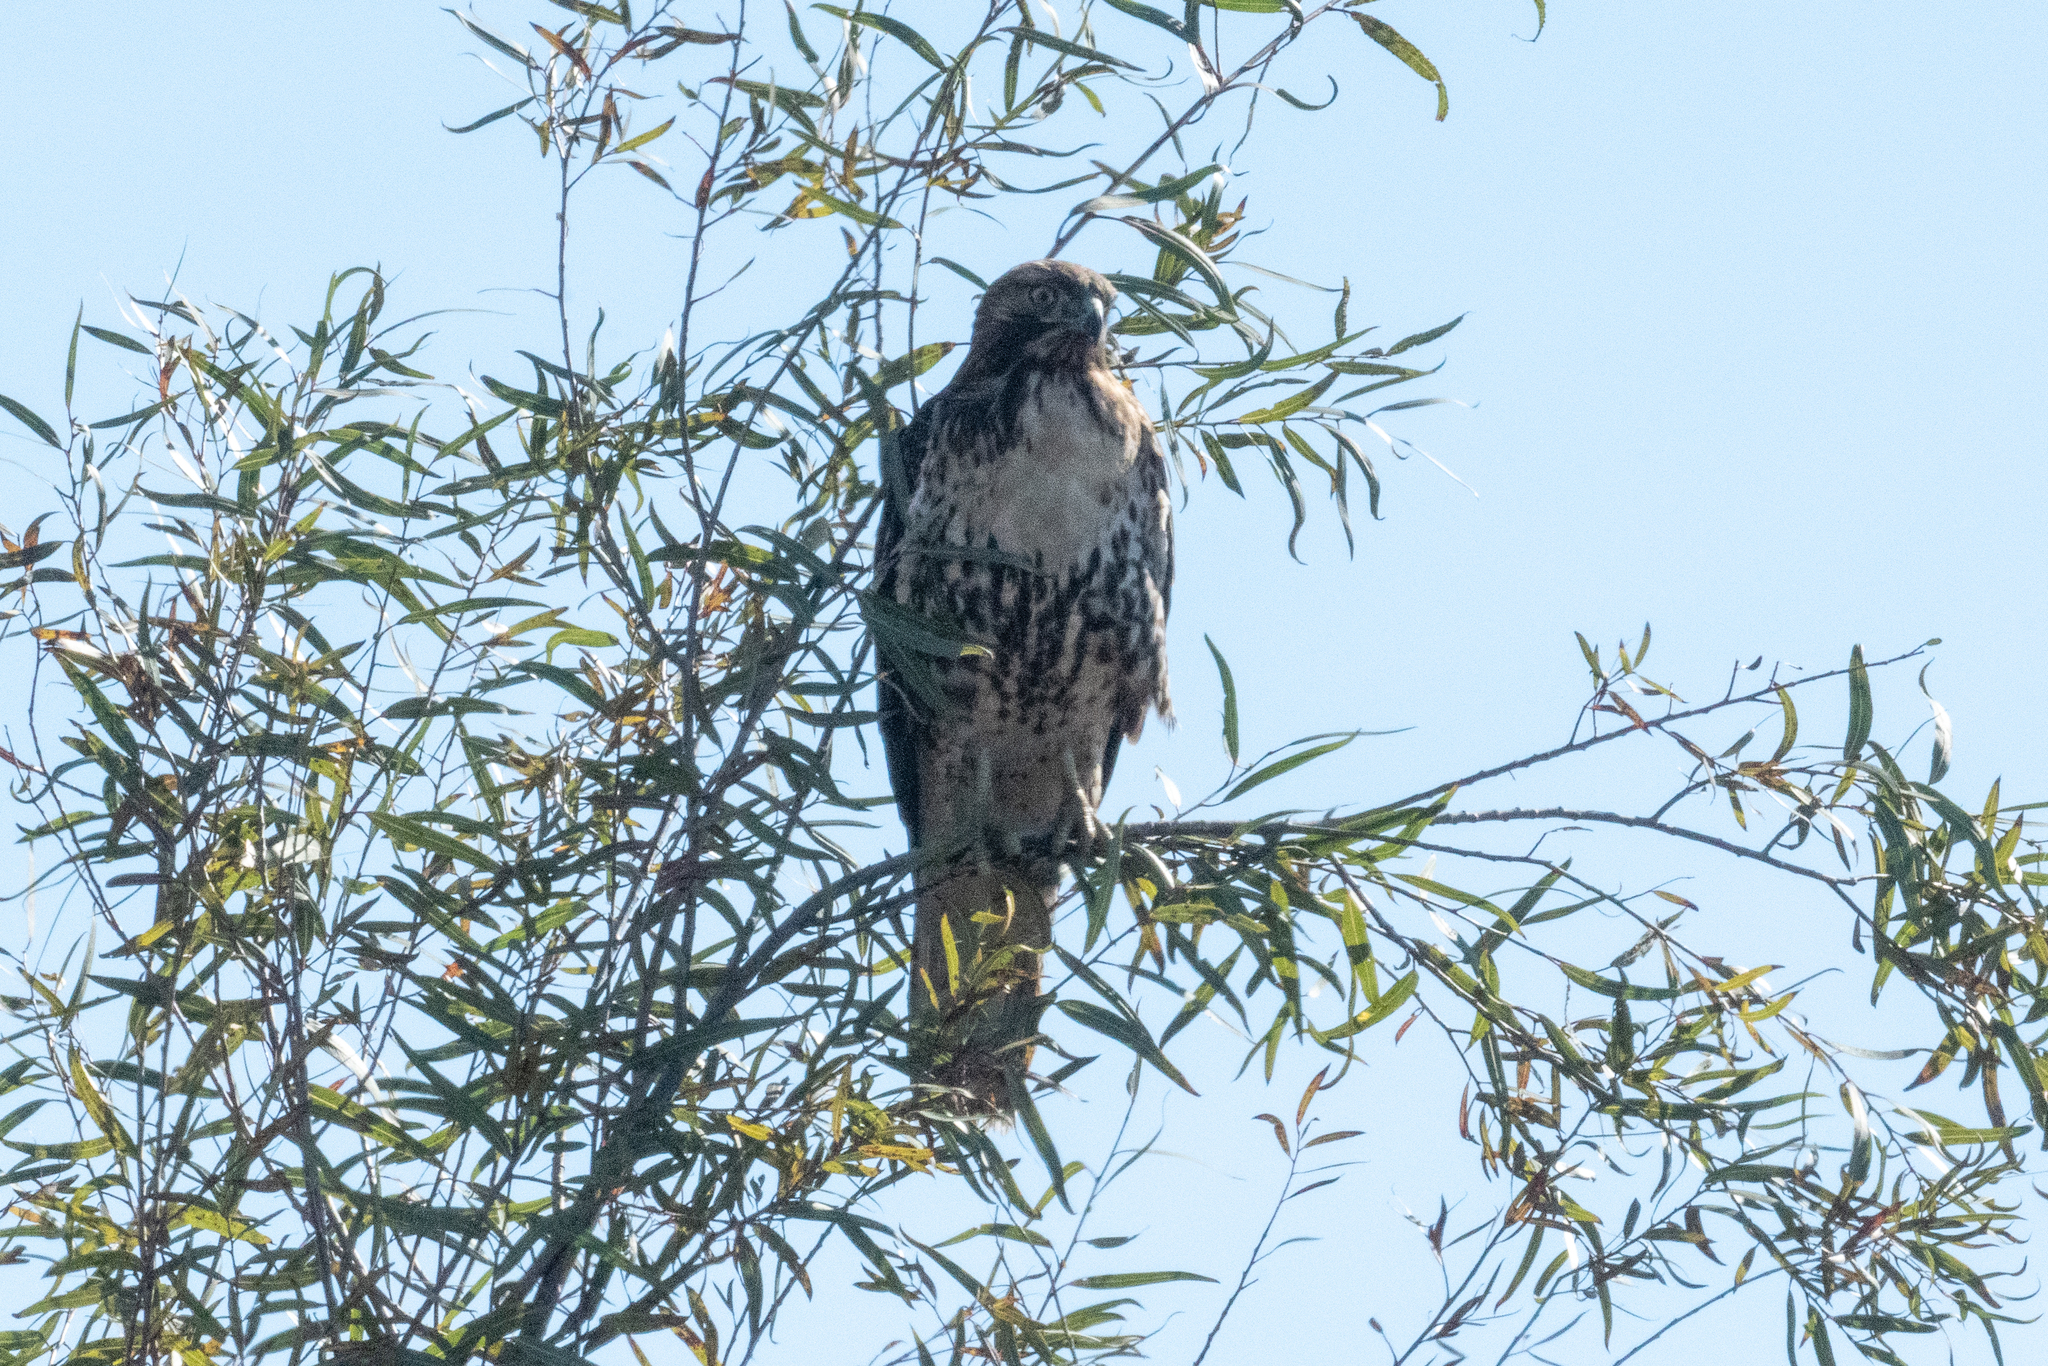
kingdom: Animalia
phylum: Chordata
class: Aves
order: Accipitriformes
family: Accipitridae
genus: Buteo
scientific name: Buteo jamaicensis
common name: Red-tailed hawk
